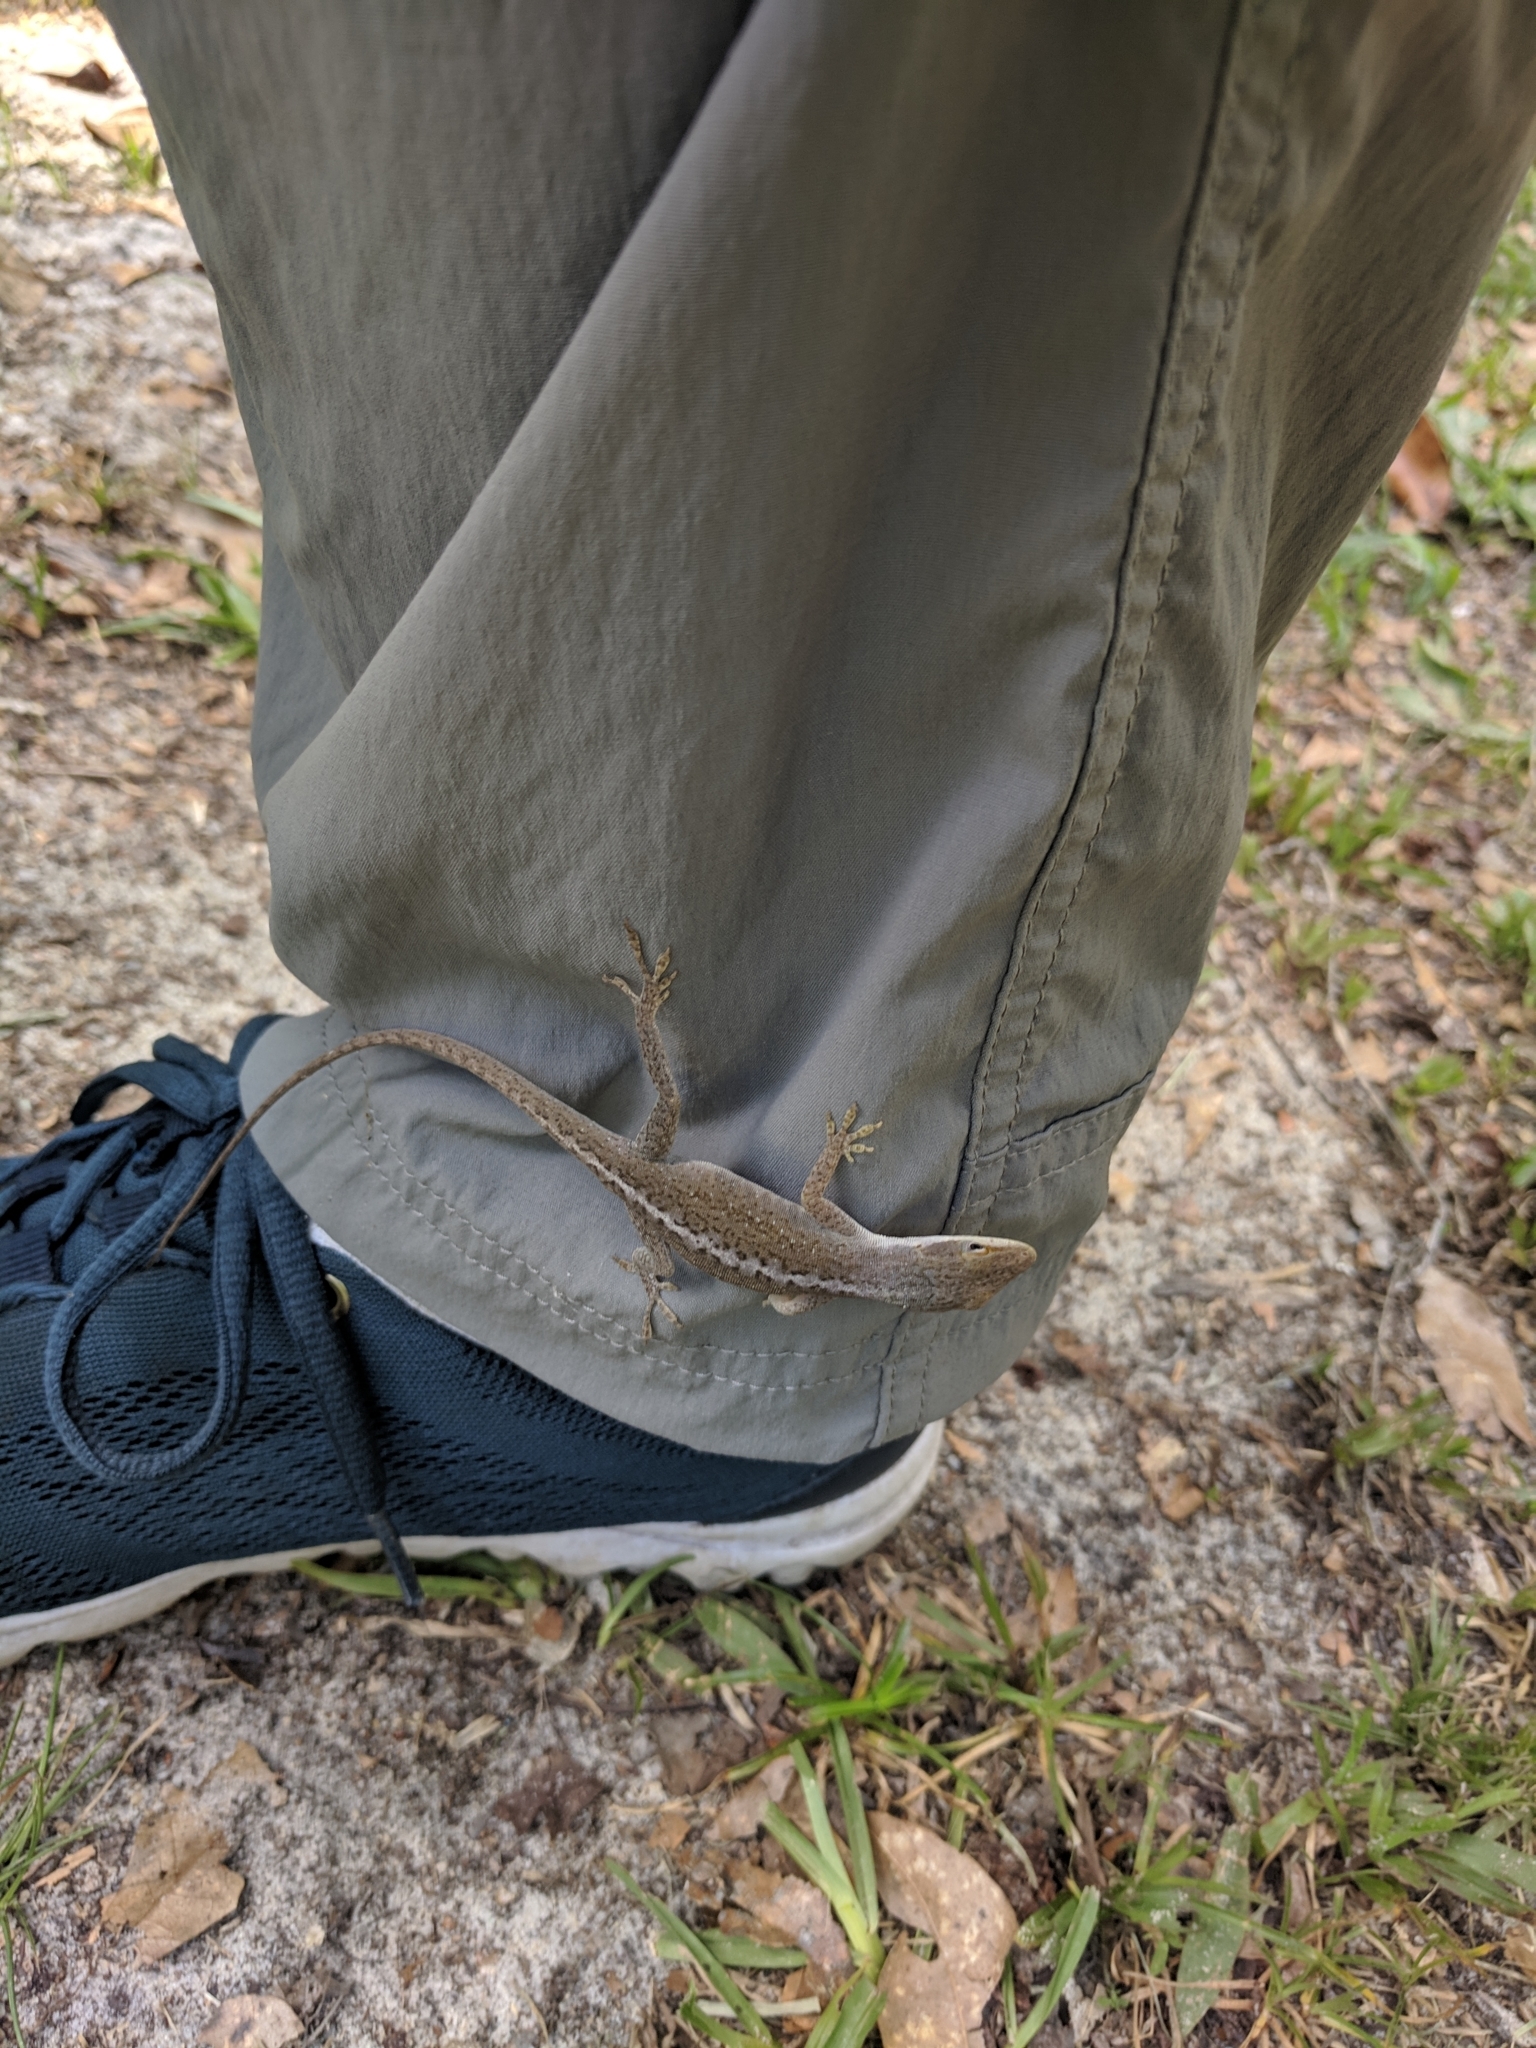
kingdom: Animalia
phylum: Chordata
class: Squamata
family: Dactyloidae
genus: Anolis
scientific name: Anolis carolinensis
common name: Green anole
